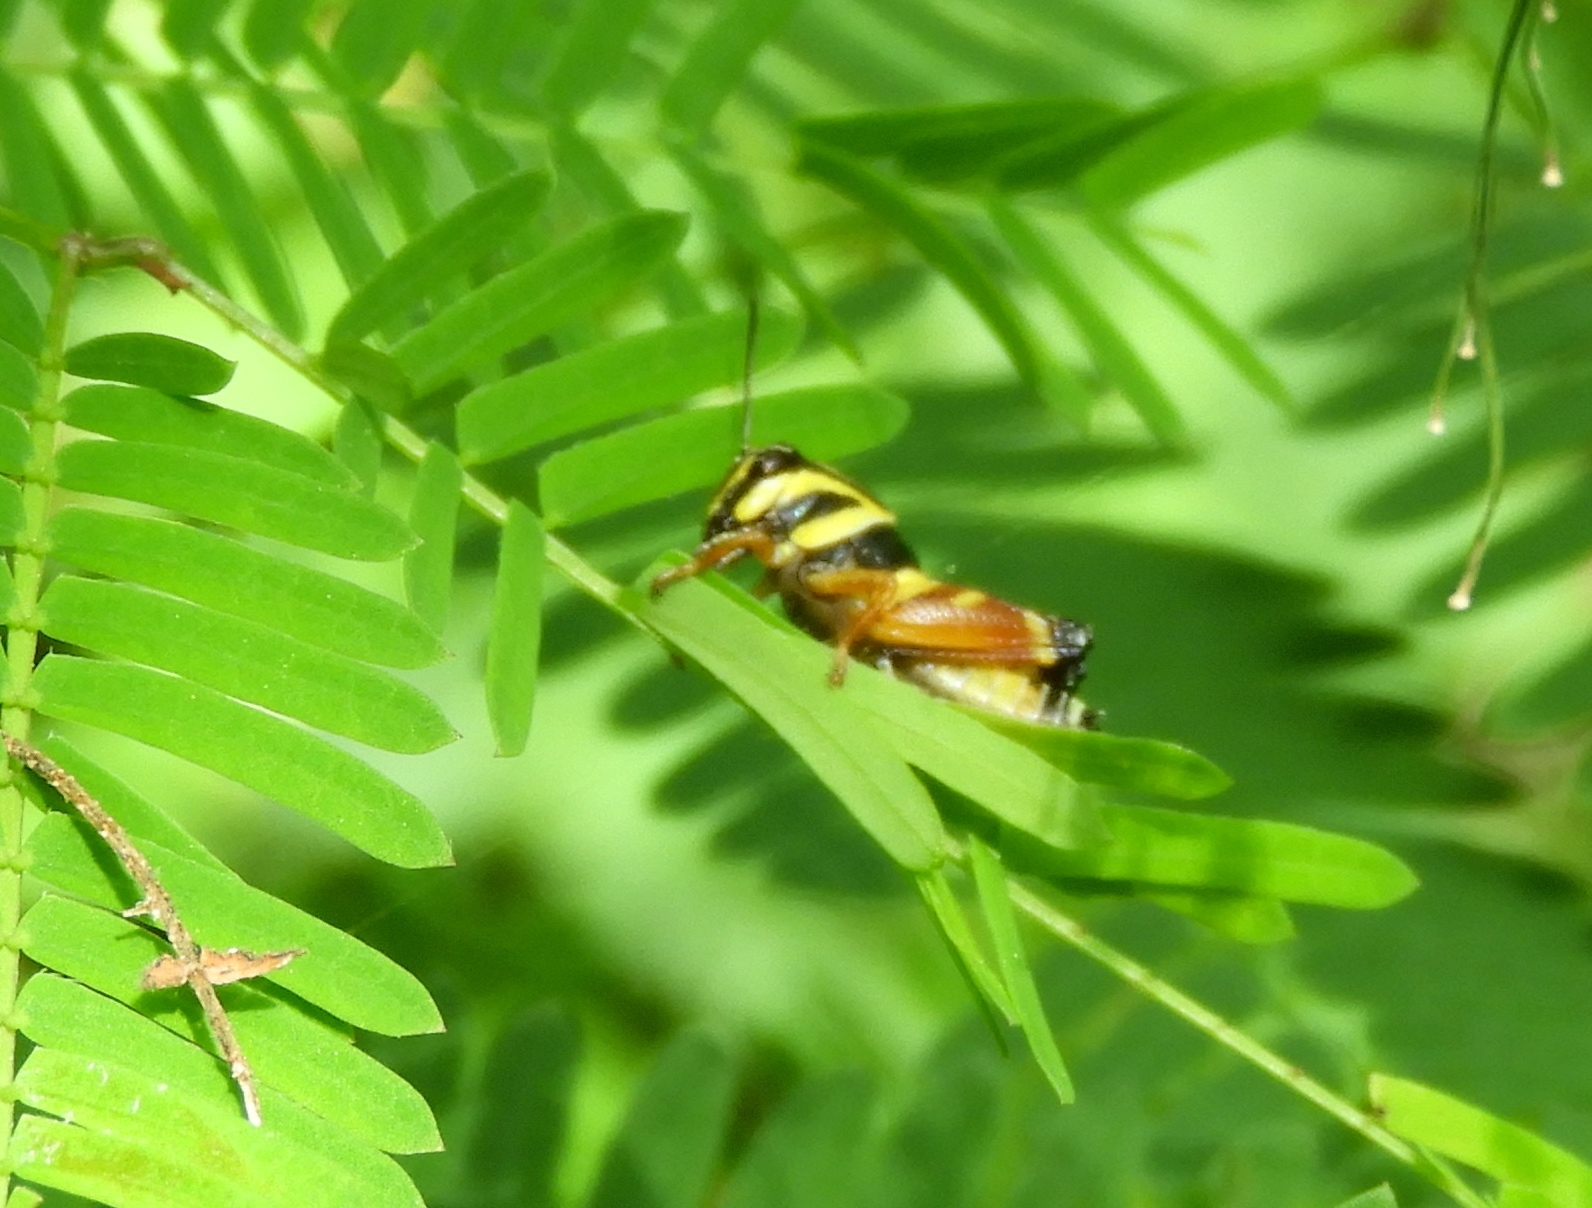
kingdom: Animalia
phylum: Arthropoda
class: Insecta
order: Orthoptera
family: Acrididae
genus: Aidemona
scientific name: Aidemona azteca
